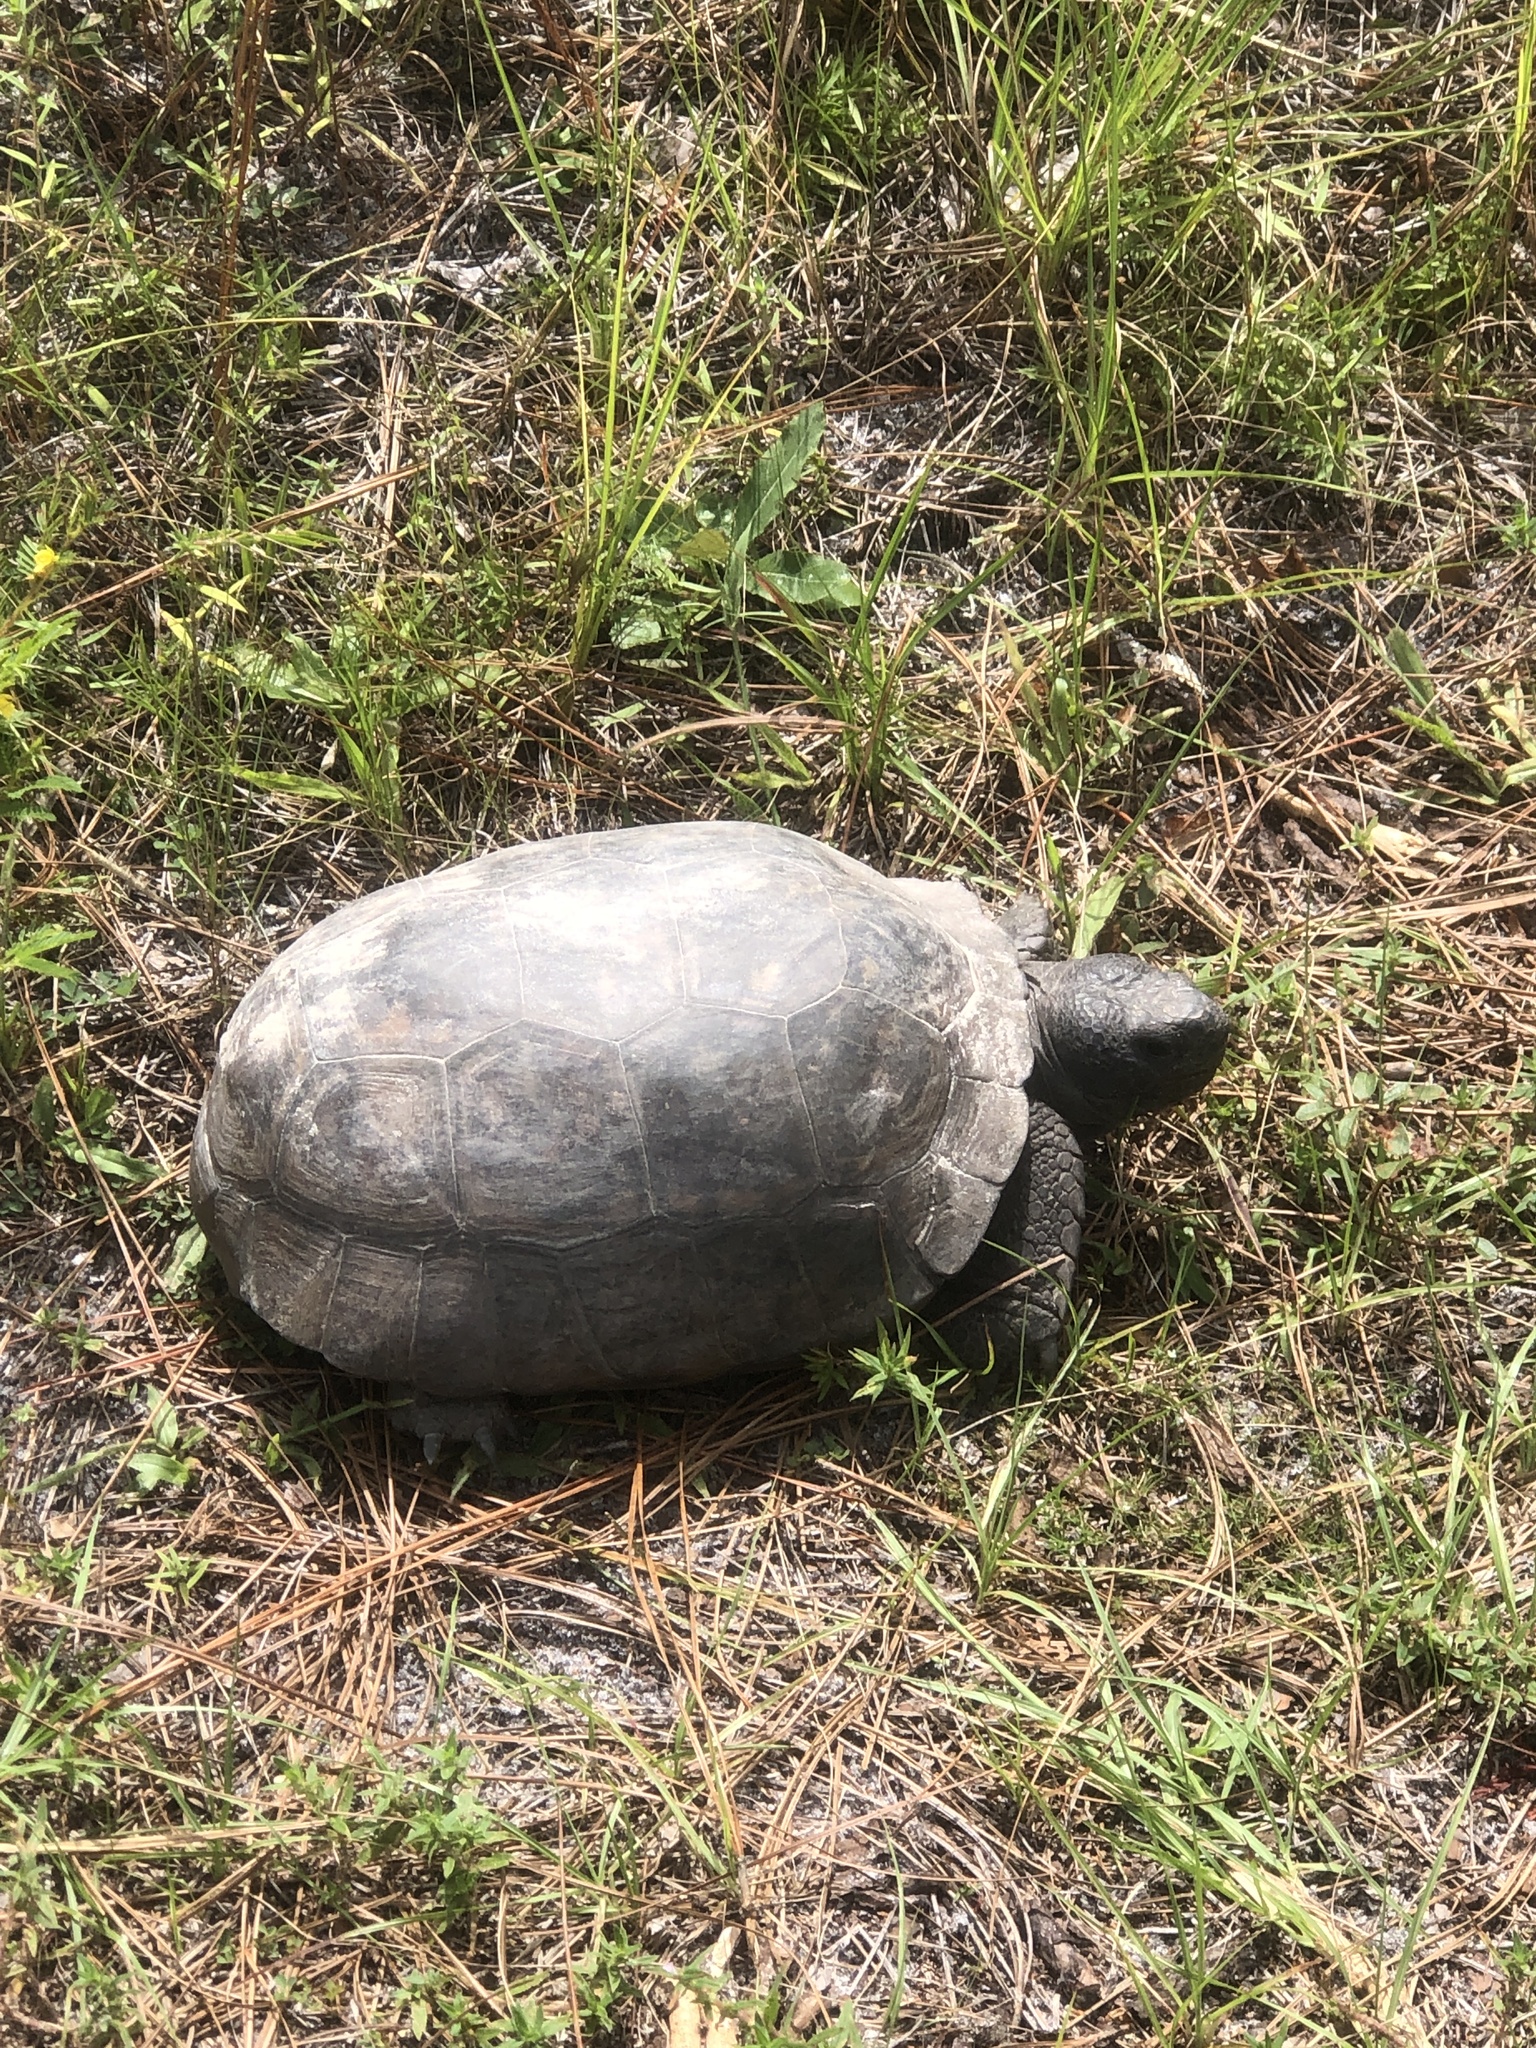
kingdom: Animalia
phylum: Chordata
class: Testudines
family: Testudinidae
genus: Gopherus
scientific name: Gopherus polyphemus
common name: Florida gopher tortoise
